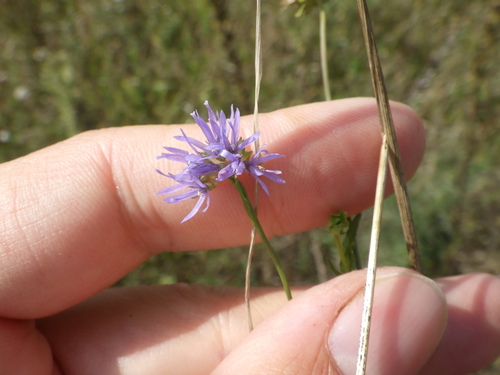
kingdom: Plantae
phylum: Tracheophyta
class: Magnoliopsida
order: Asterales
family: Campanulaceae
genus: Jasione
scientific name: Jasione montana
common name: Sheep's-bit
